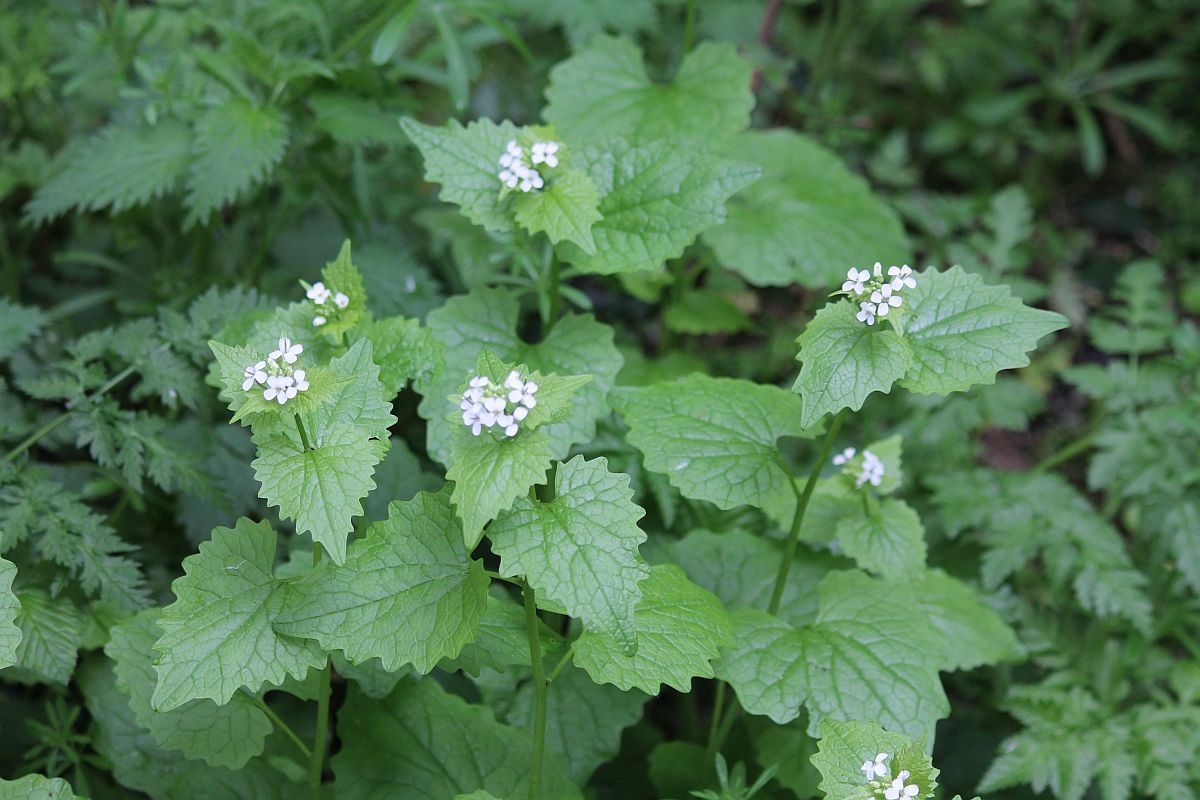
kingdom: Plantae
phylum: Tracheophyta
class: Magnoliopsida
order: Brassicales
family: Brassicaceae
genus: Alliaria
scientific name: Alliaria petiolata
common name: Garlic mustard
